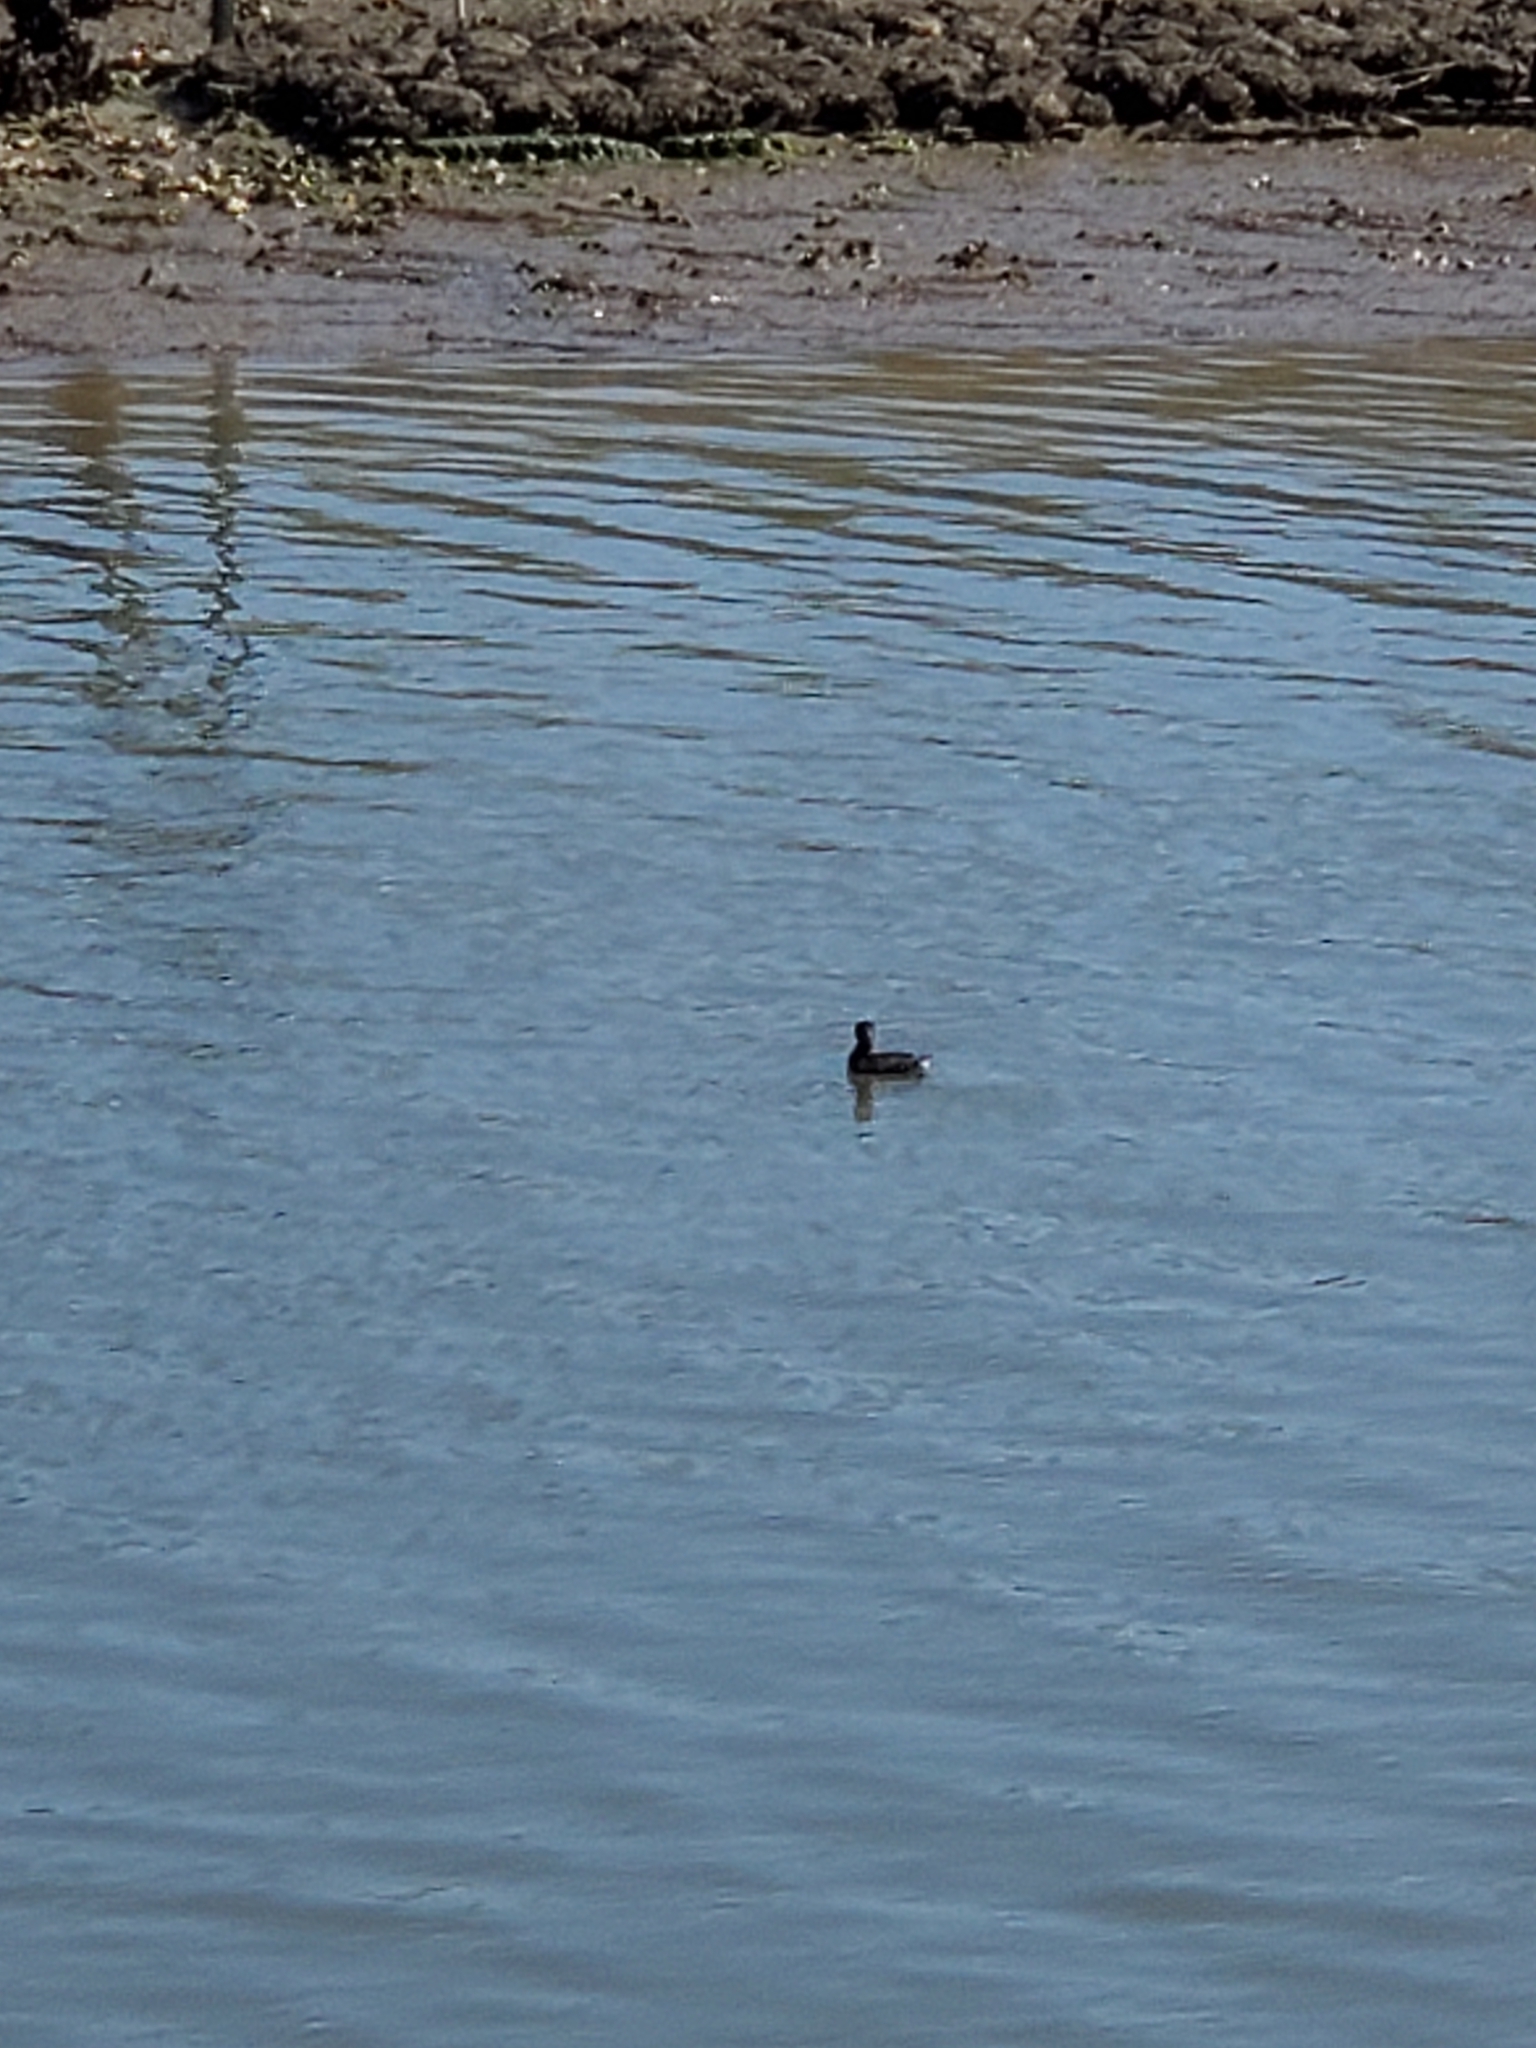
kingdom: Animalia
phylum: Chordata
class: Aves
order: Podicipediformes
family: Podicipedidae
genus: Podilymbus
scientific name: Podilymbus podiceps
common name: Pied-billed grebe
